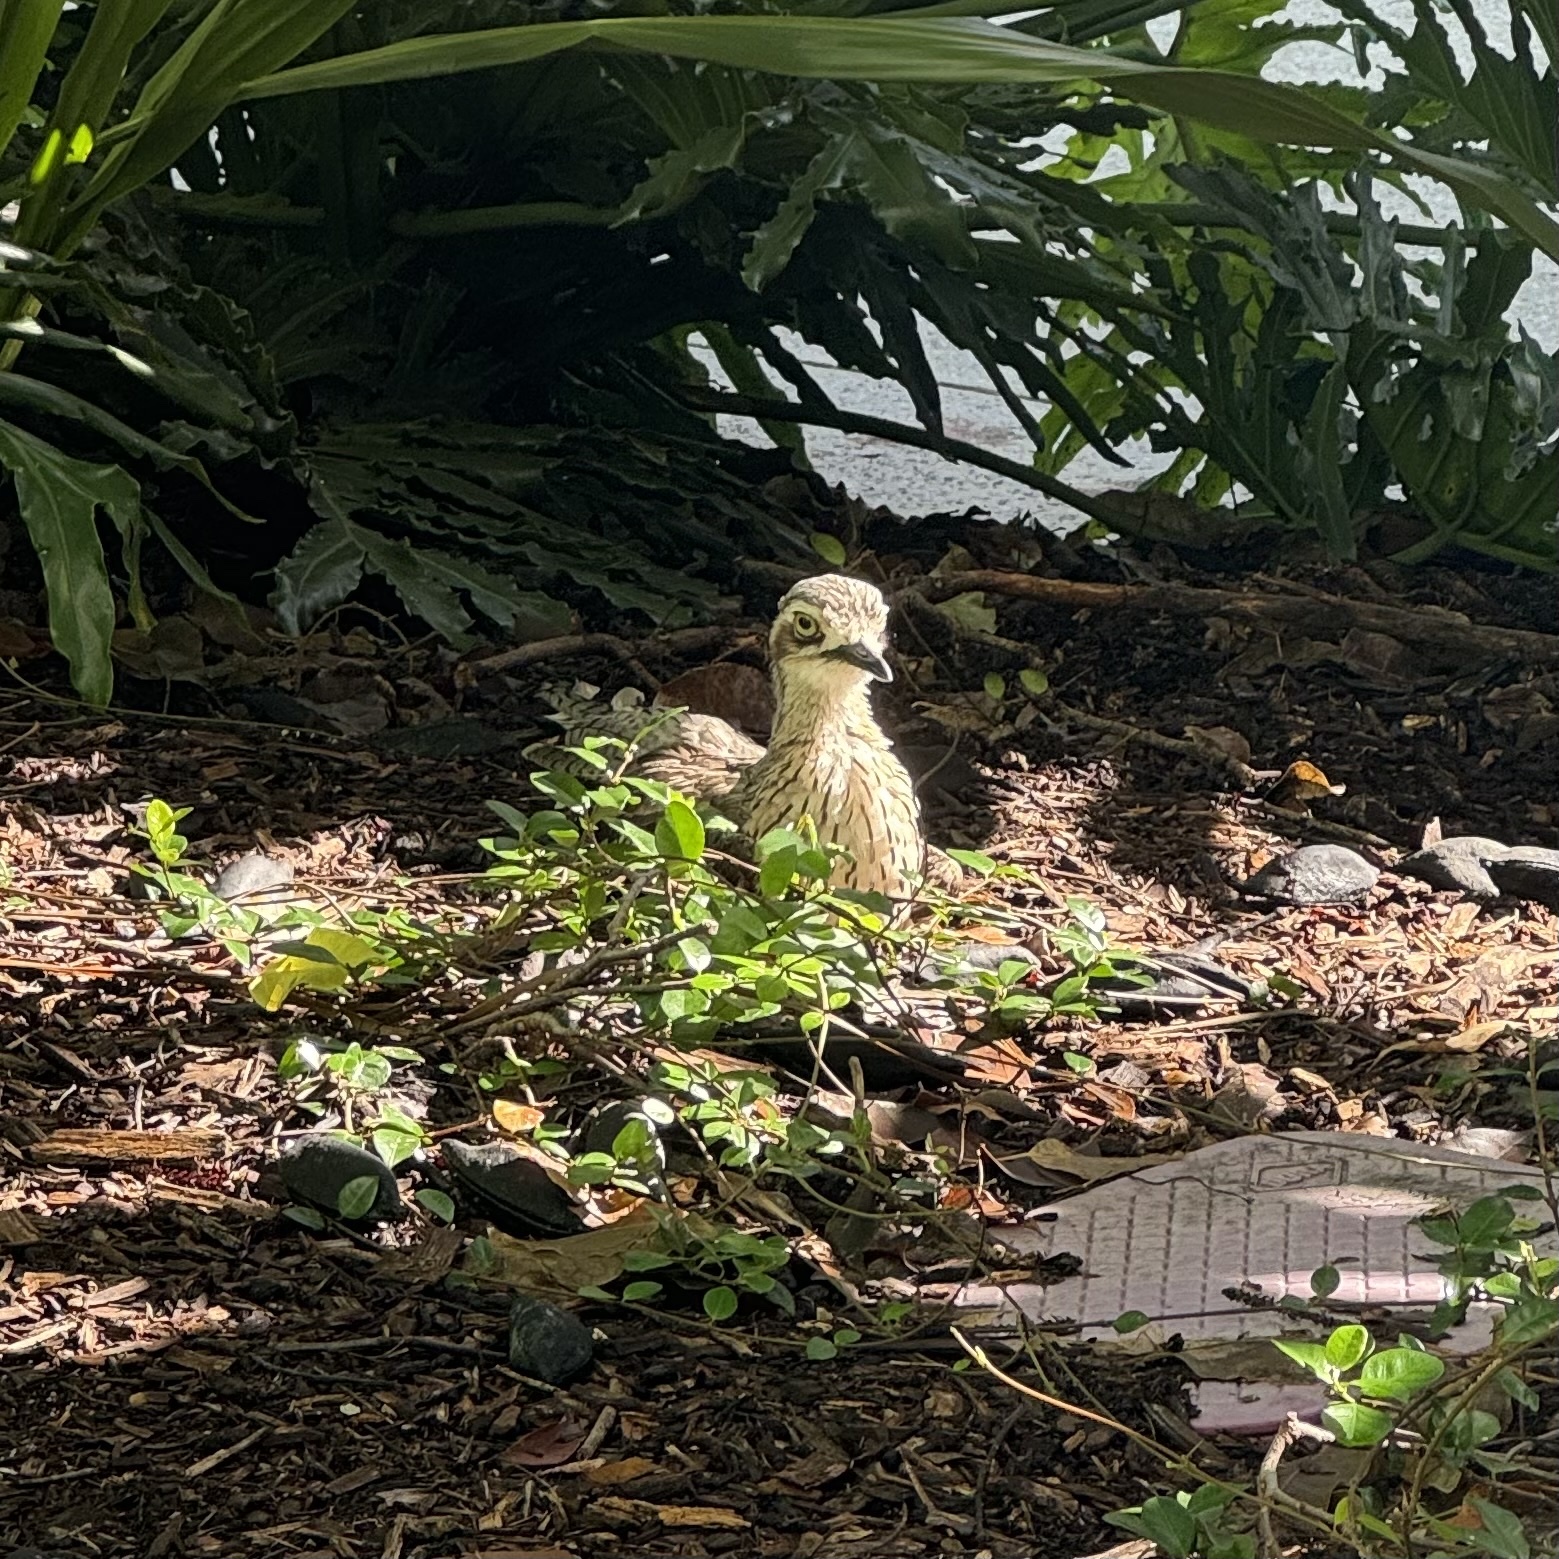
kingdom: Animalia
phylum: Chordata
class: Aves
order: Charadriiformes
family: Burhinidae
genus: Burhinus
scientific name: Burhinus grallarius
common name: Bush stone-curlew
